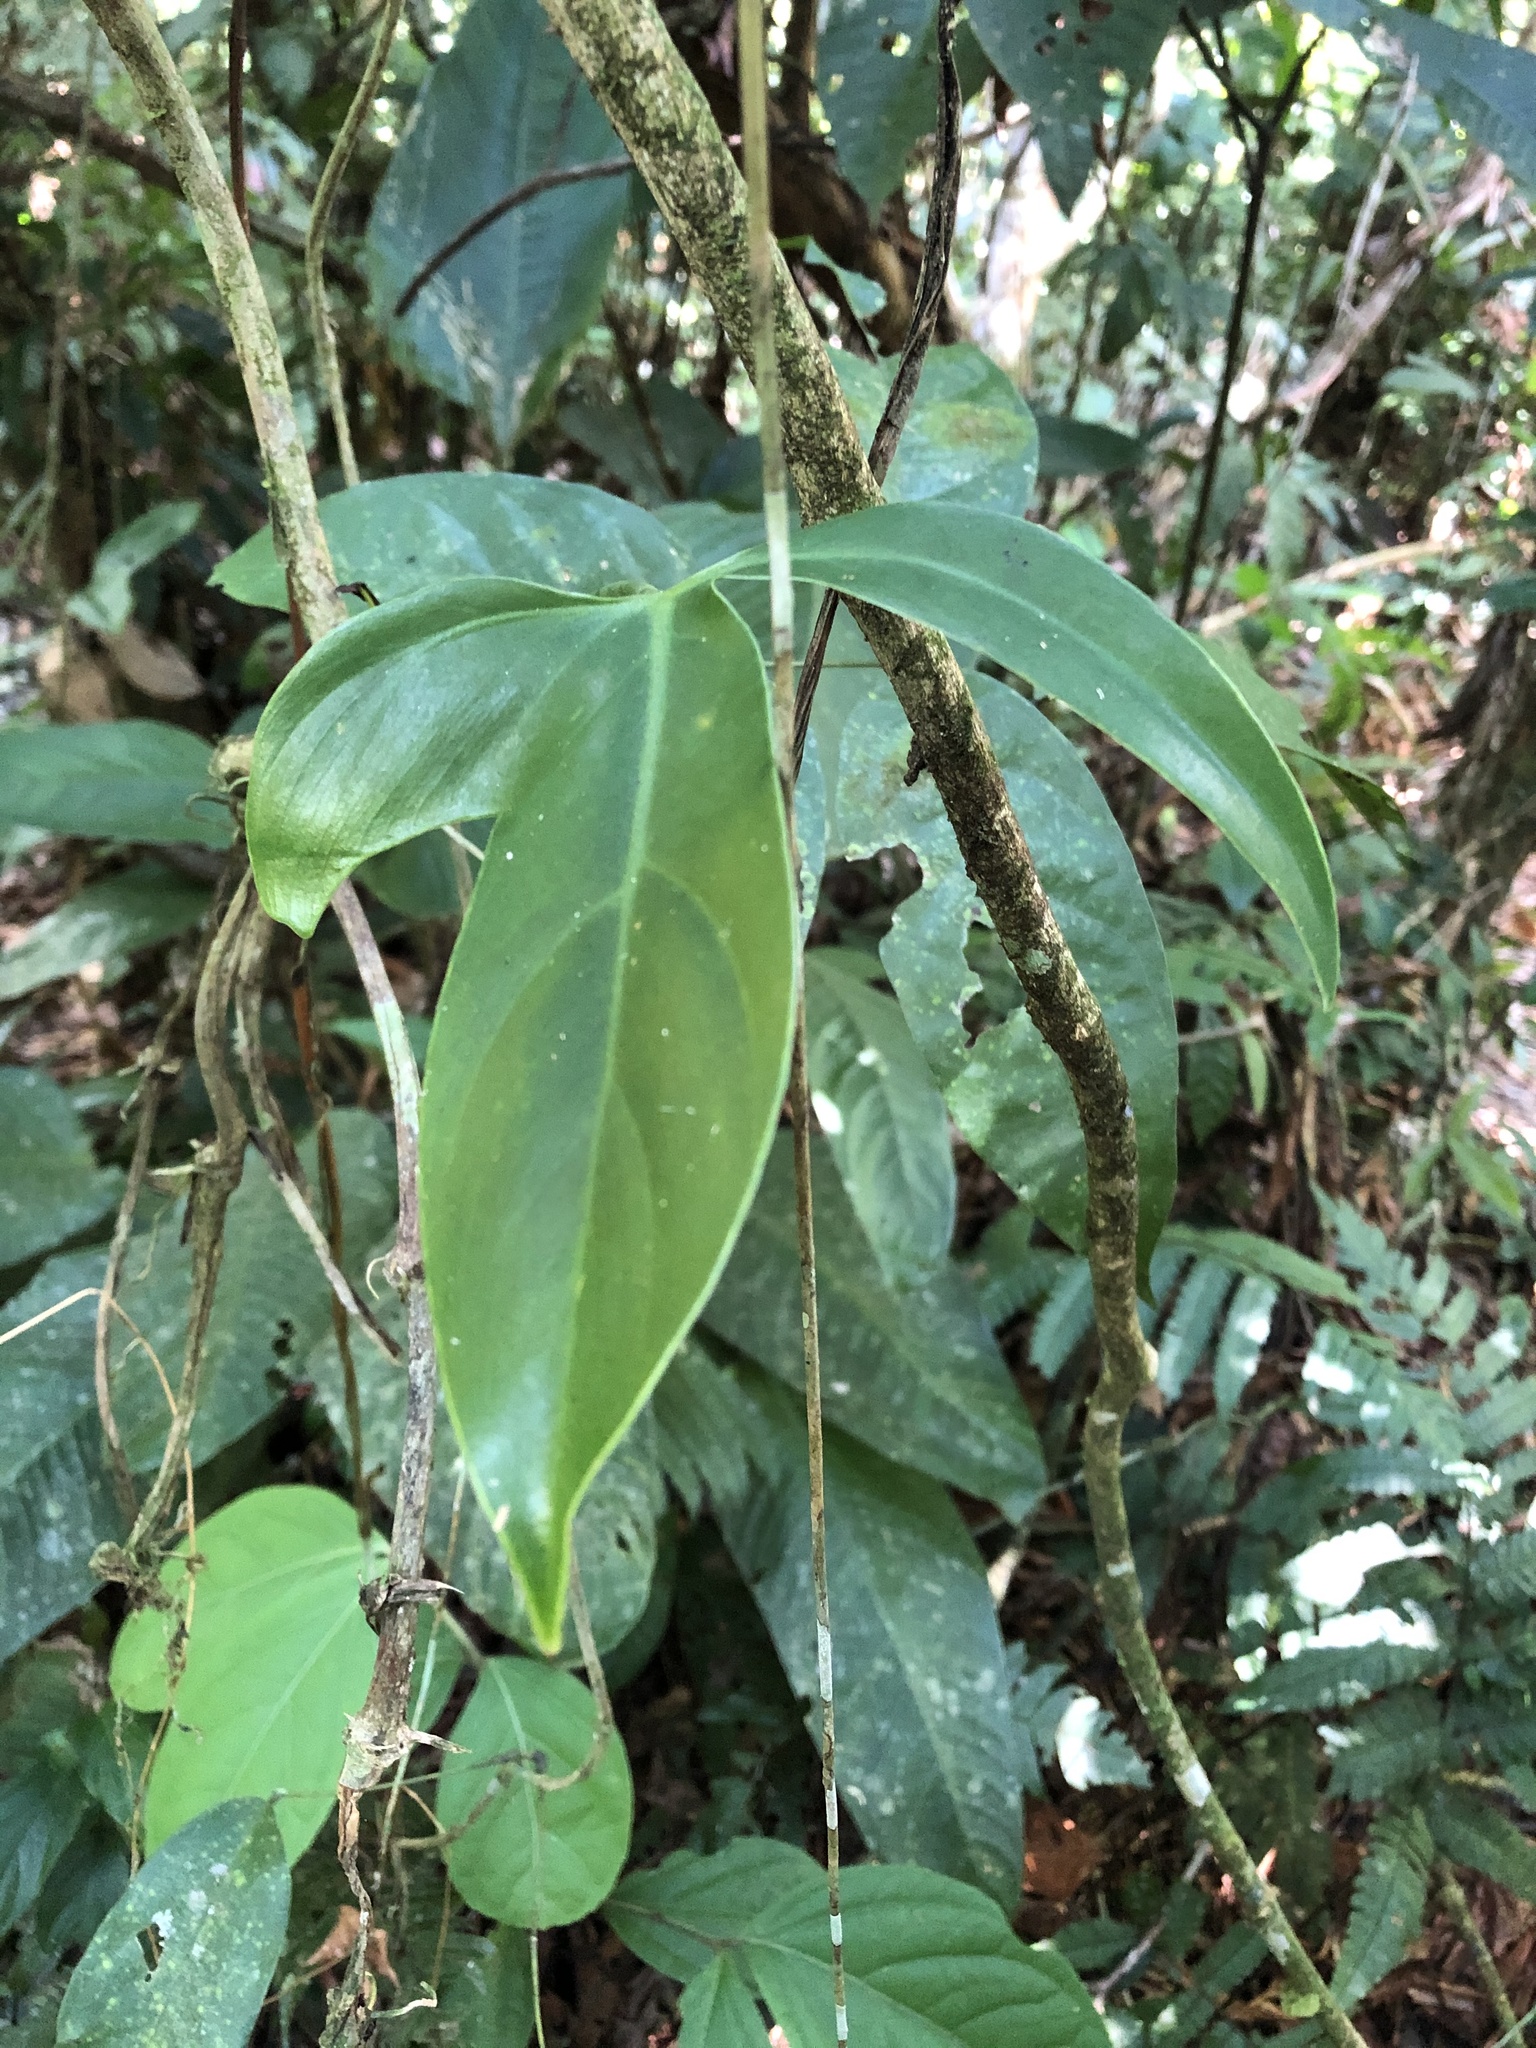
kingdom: Plantae
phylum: Tracheophyta
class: Liliopsida
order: Alismatales
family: Araceae
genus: Philodendron
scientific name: Philodendron camposportoanum
